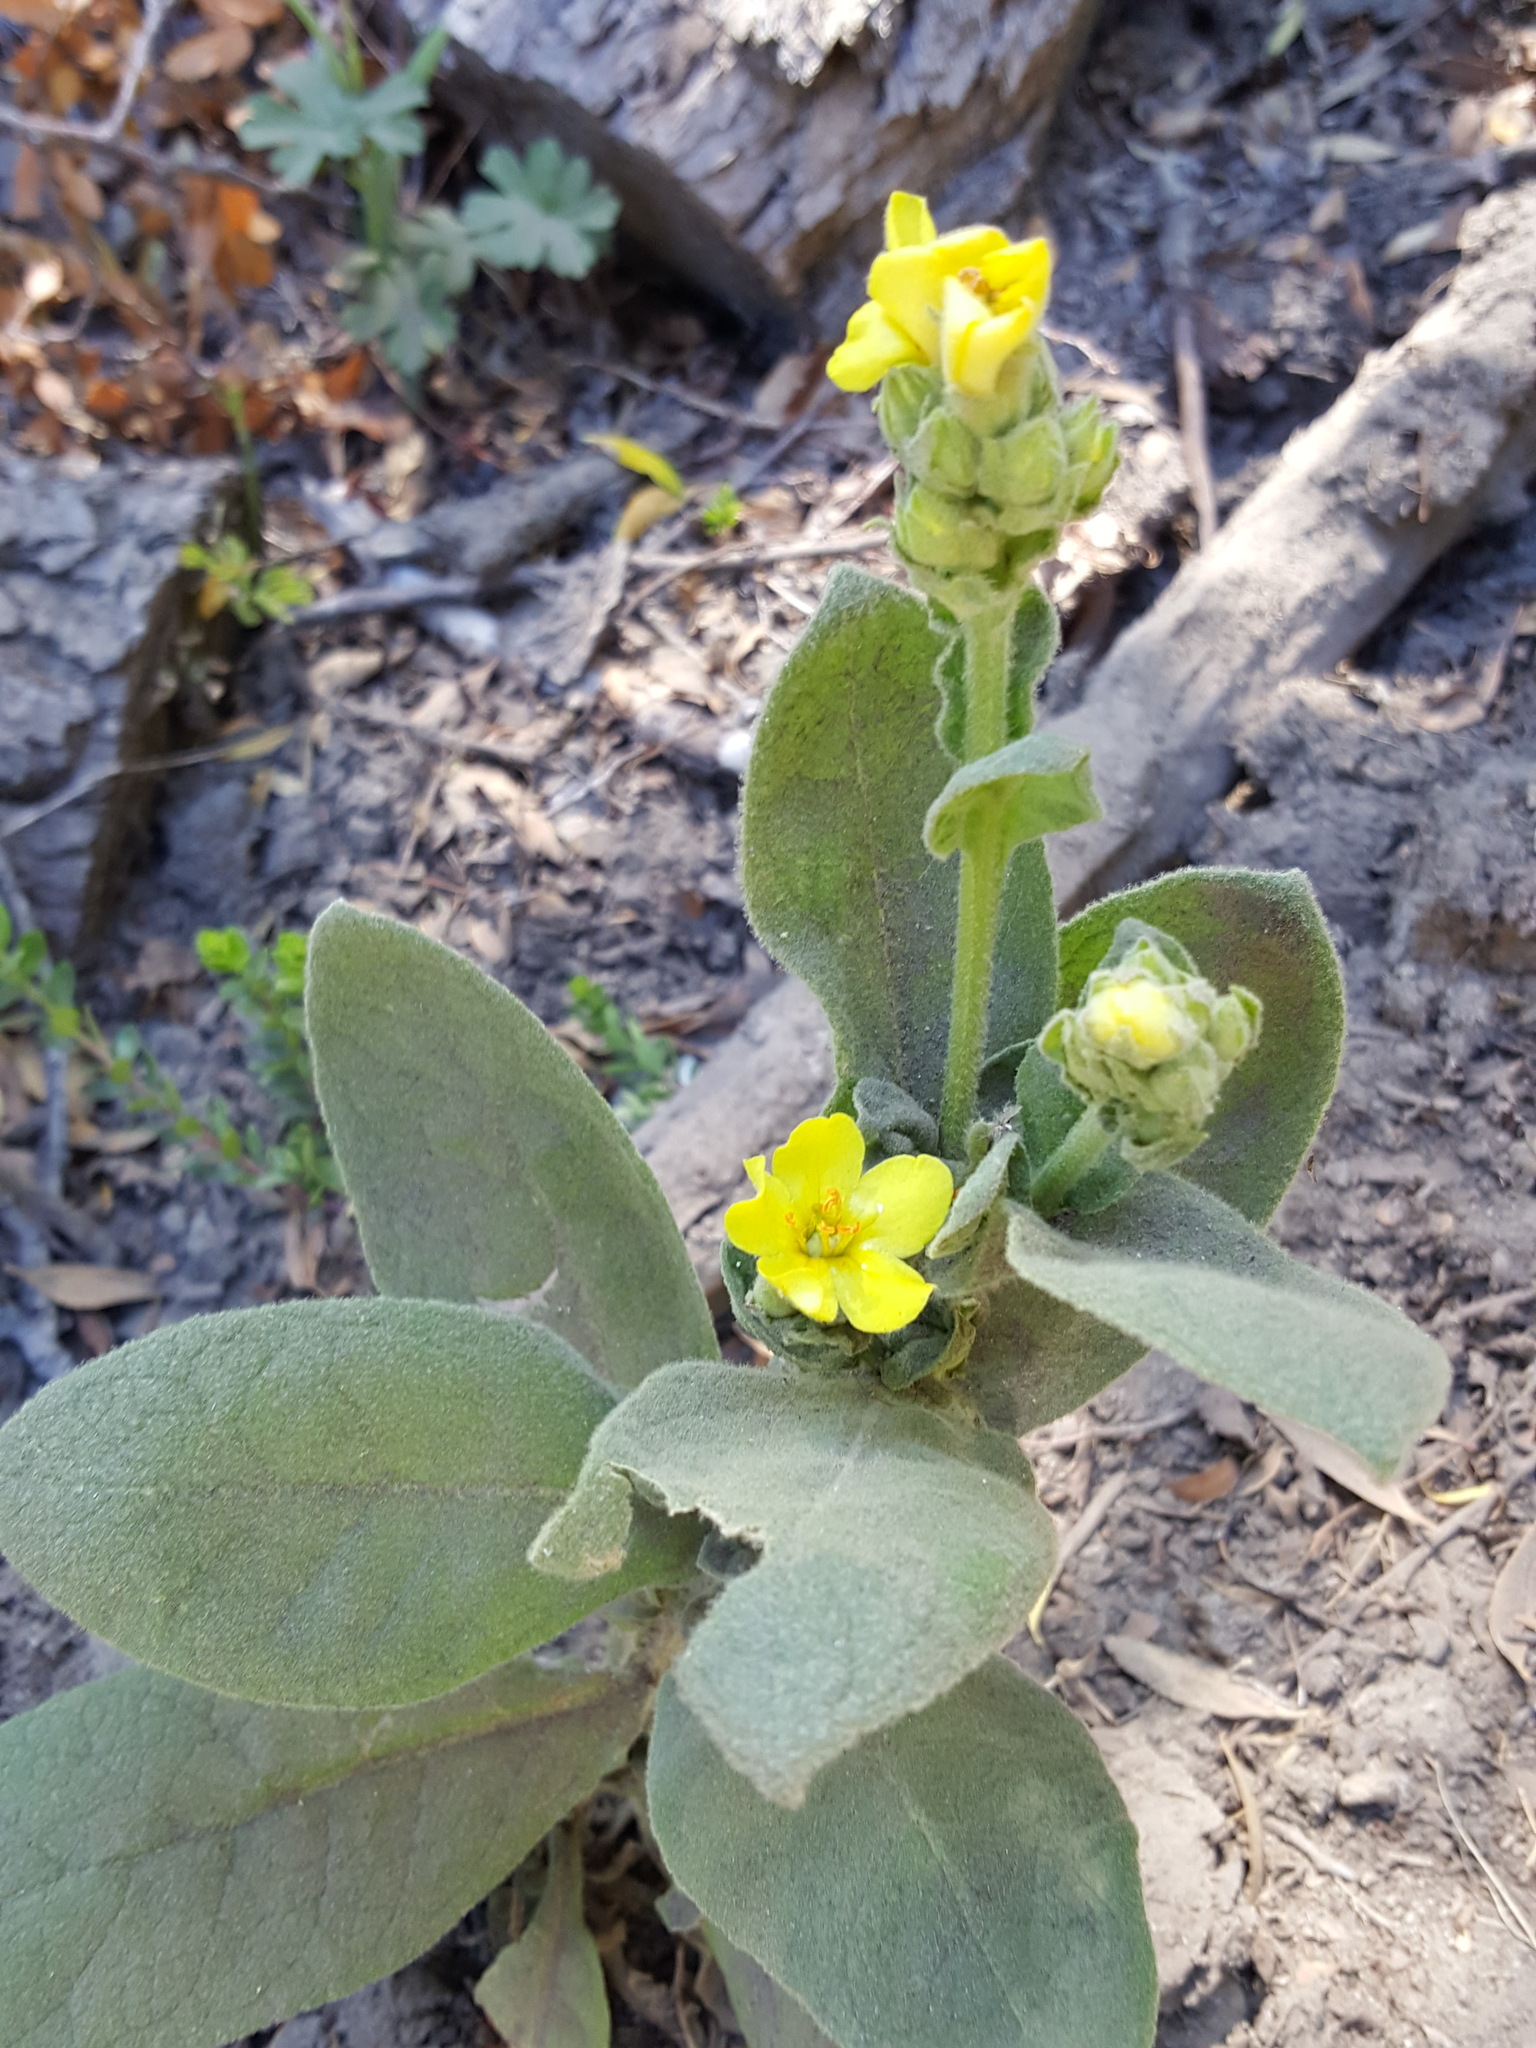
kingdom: Plantae
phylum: Tracheophyta
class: Magnoliopsida
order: Lamiales
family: Scrophulariaceae
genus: Verbascum
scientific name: Verbascum thapsus
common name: Common mullein
